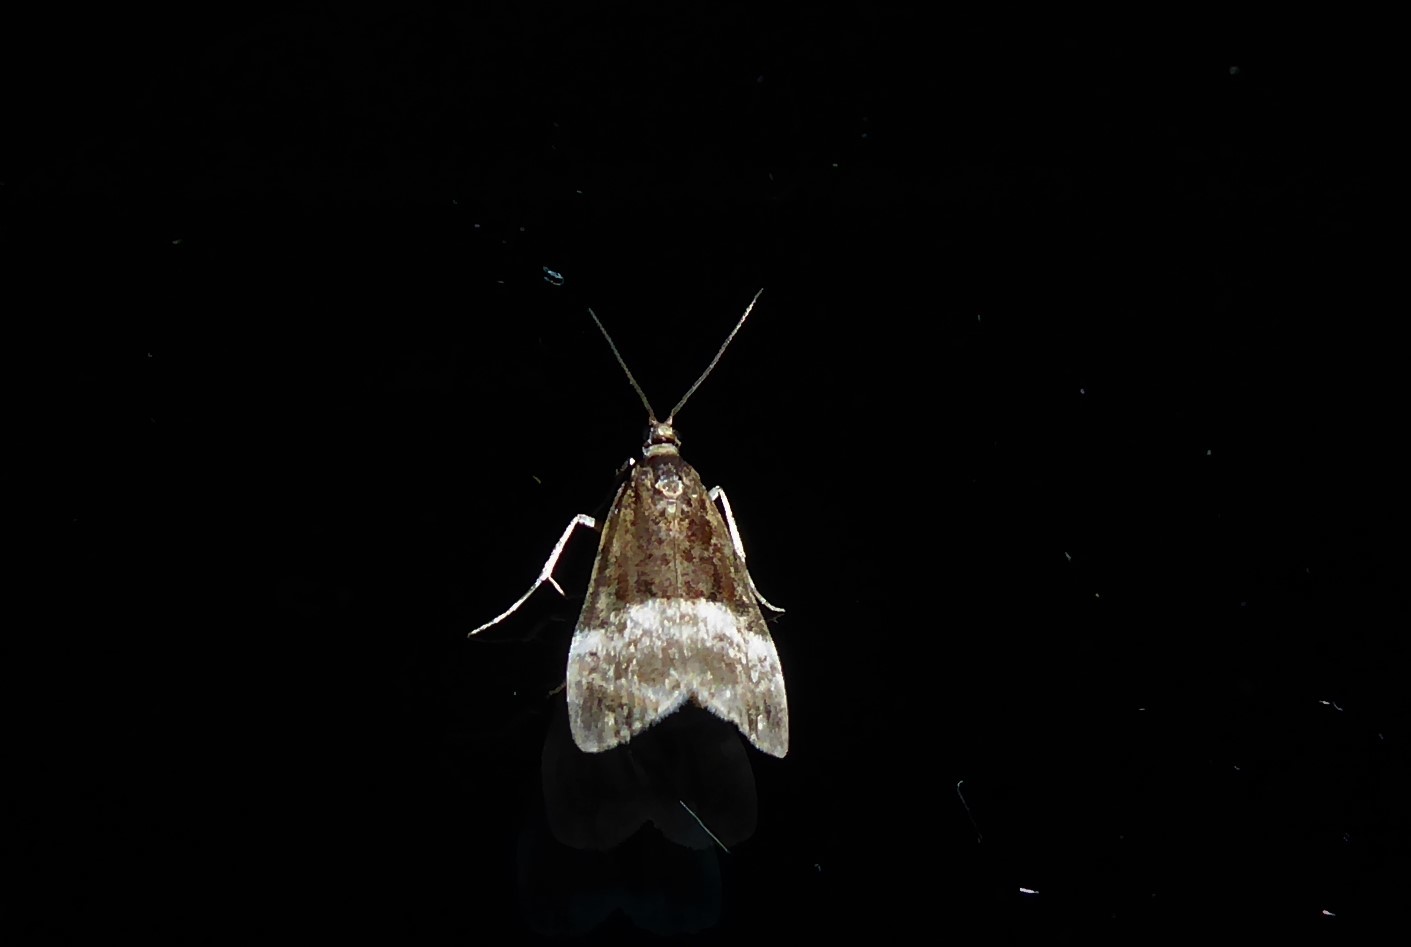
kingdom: Animalia
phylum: Arthropoda
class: Insecta
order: Lepidoptera
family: Crambidae
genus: Scoparia
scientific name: Scoparia minusculalis
